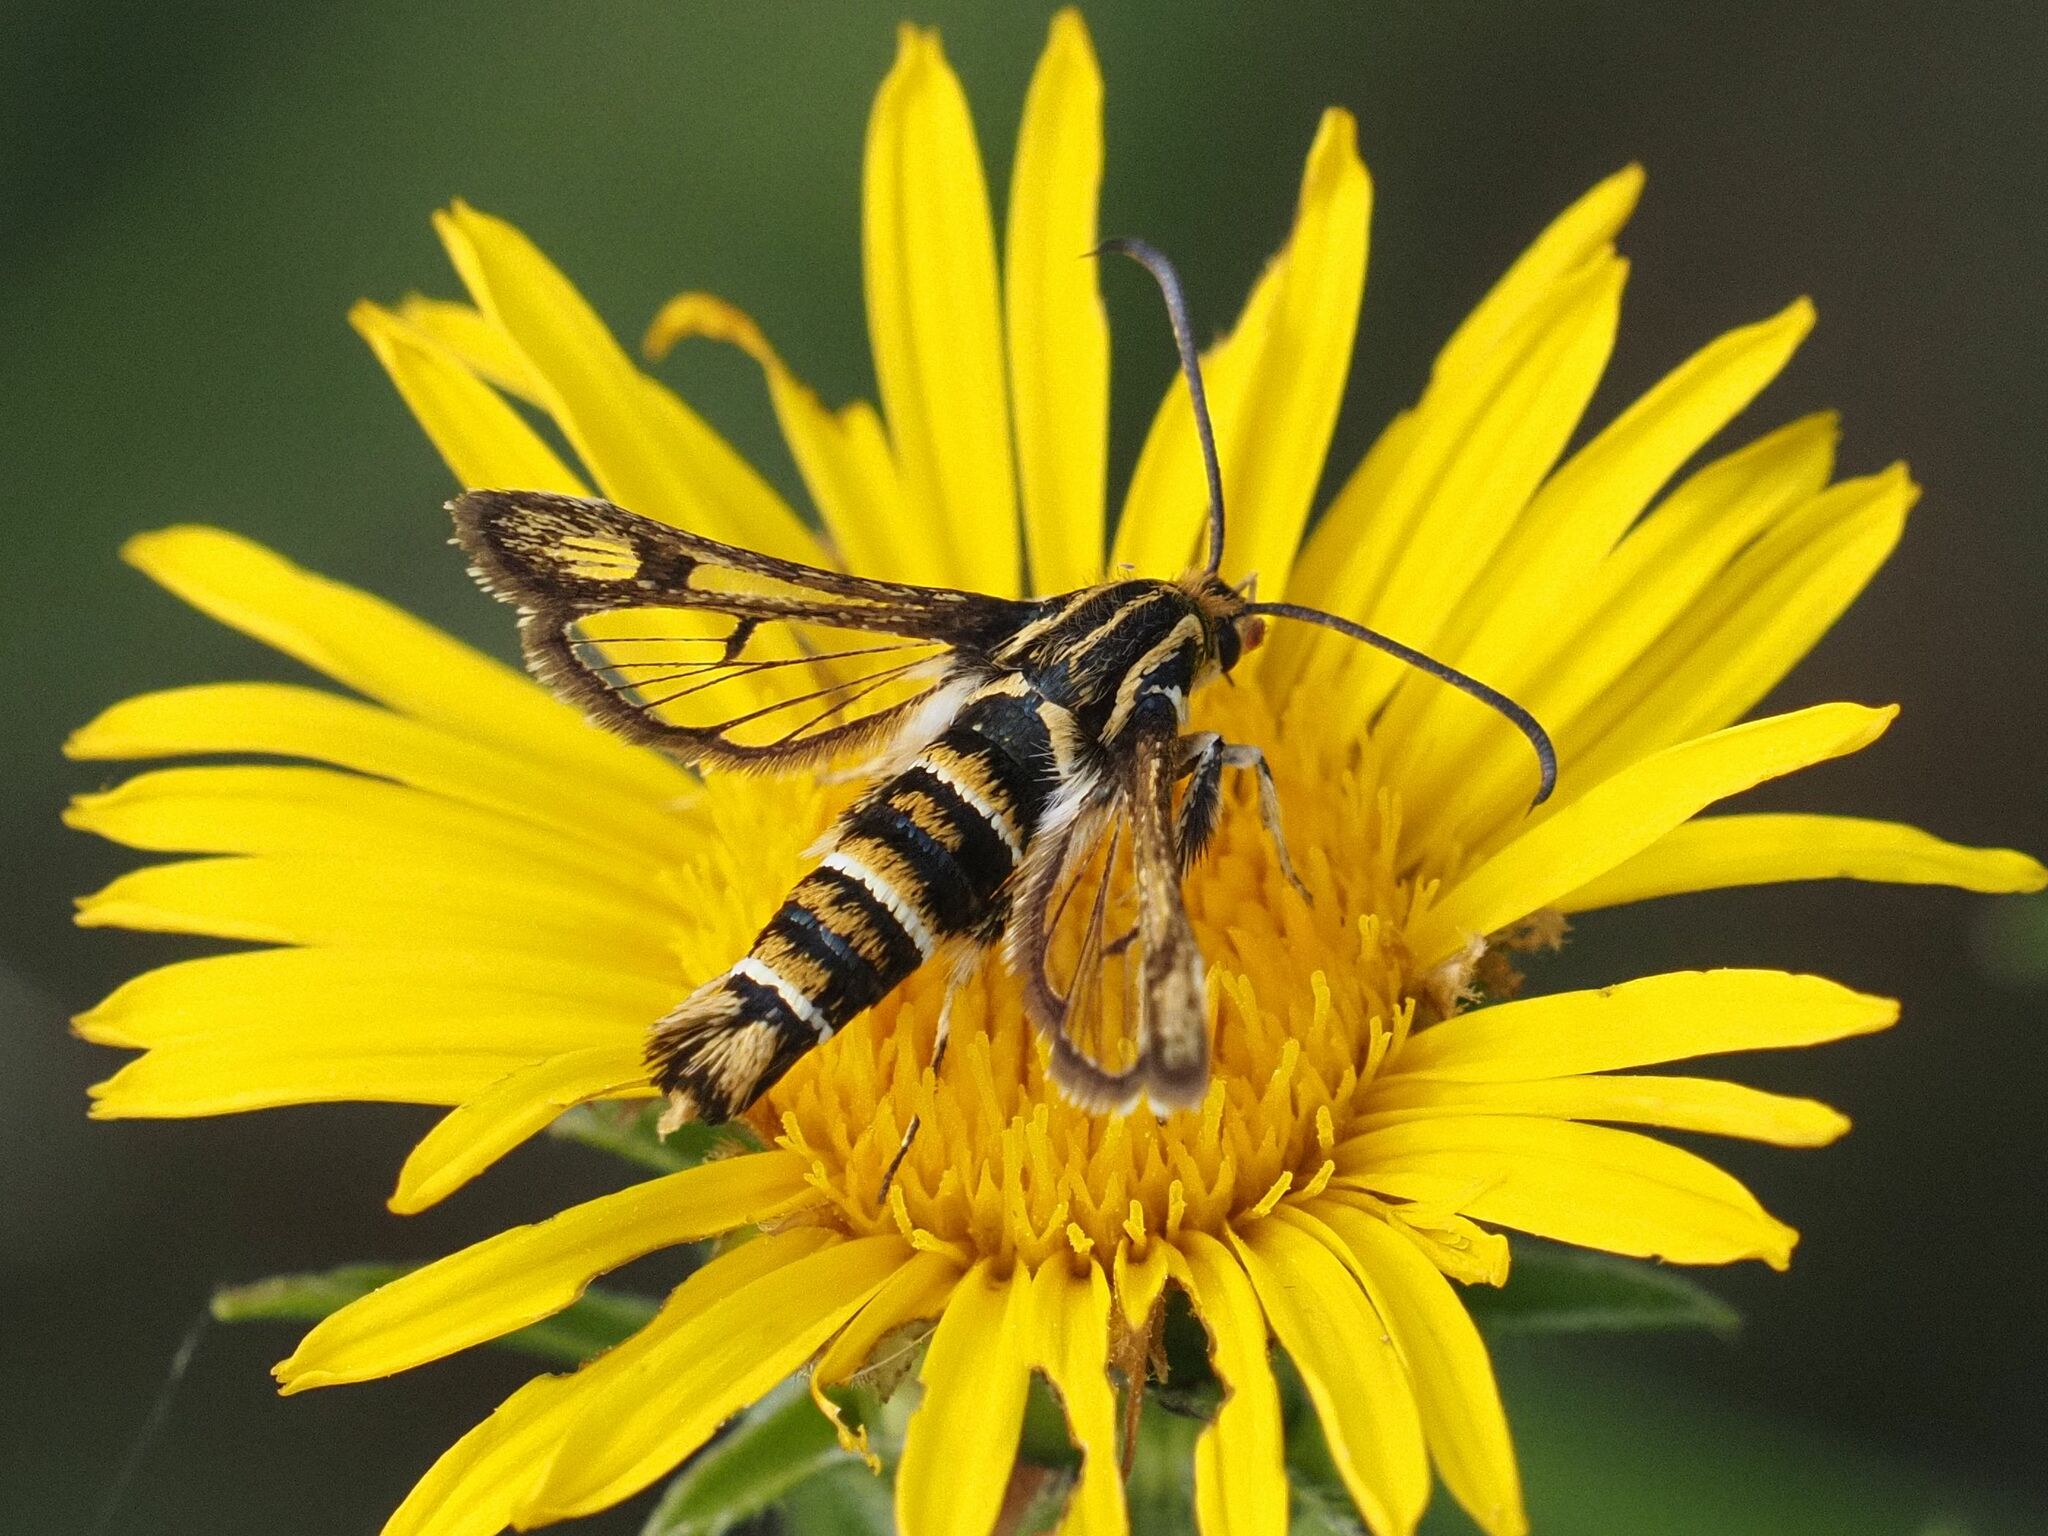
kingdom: Animalia
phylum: Arthropoda
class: Insecta
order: Lepidoptera
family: Sesiidae
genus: Chamaesphecia
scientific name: Chamaesphecia annellata
